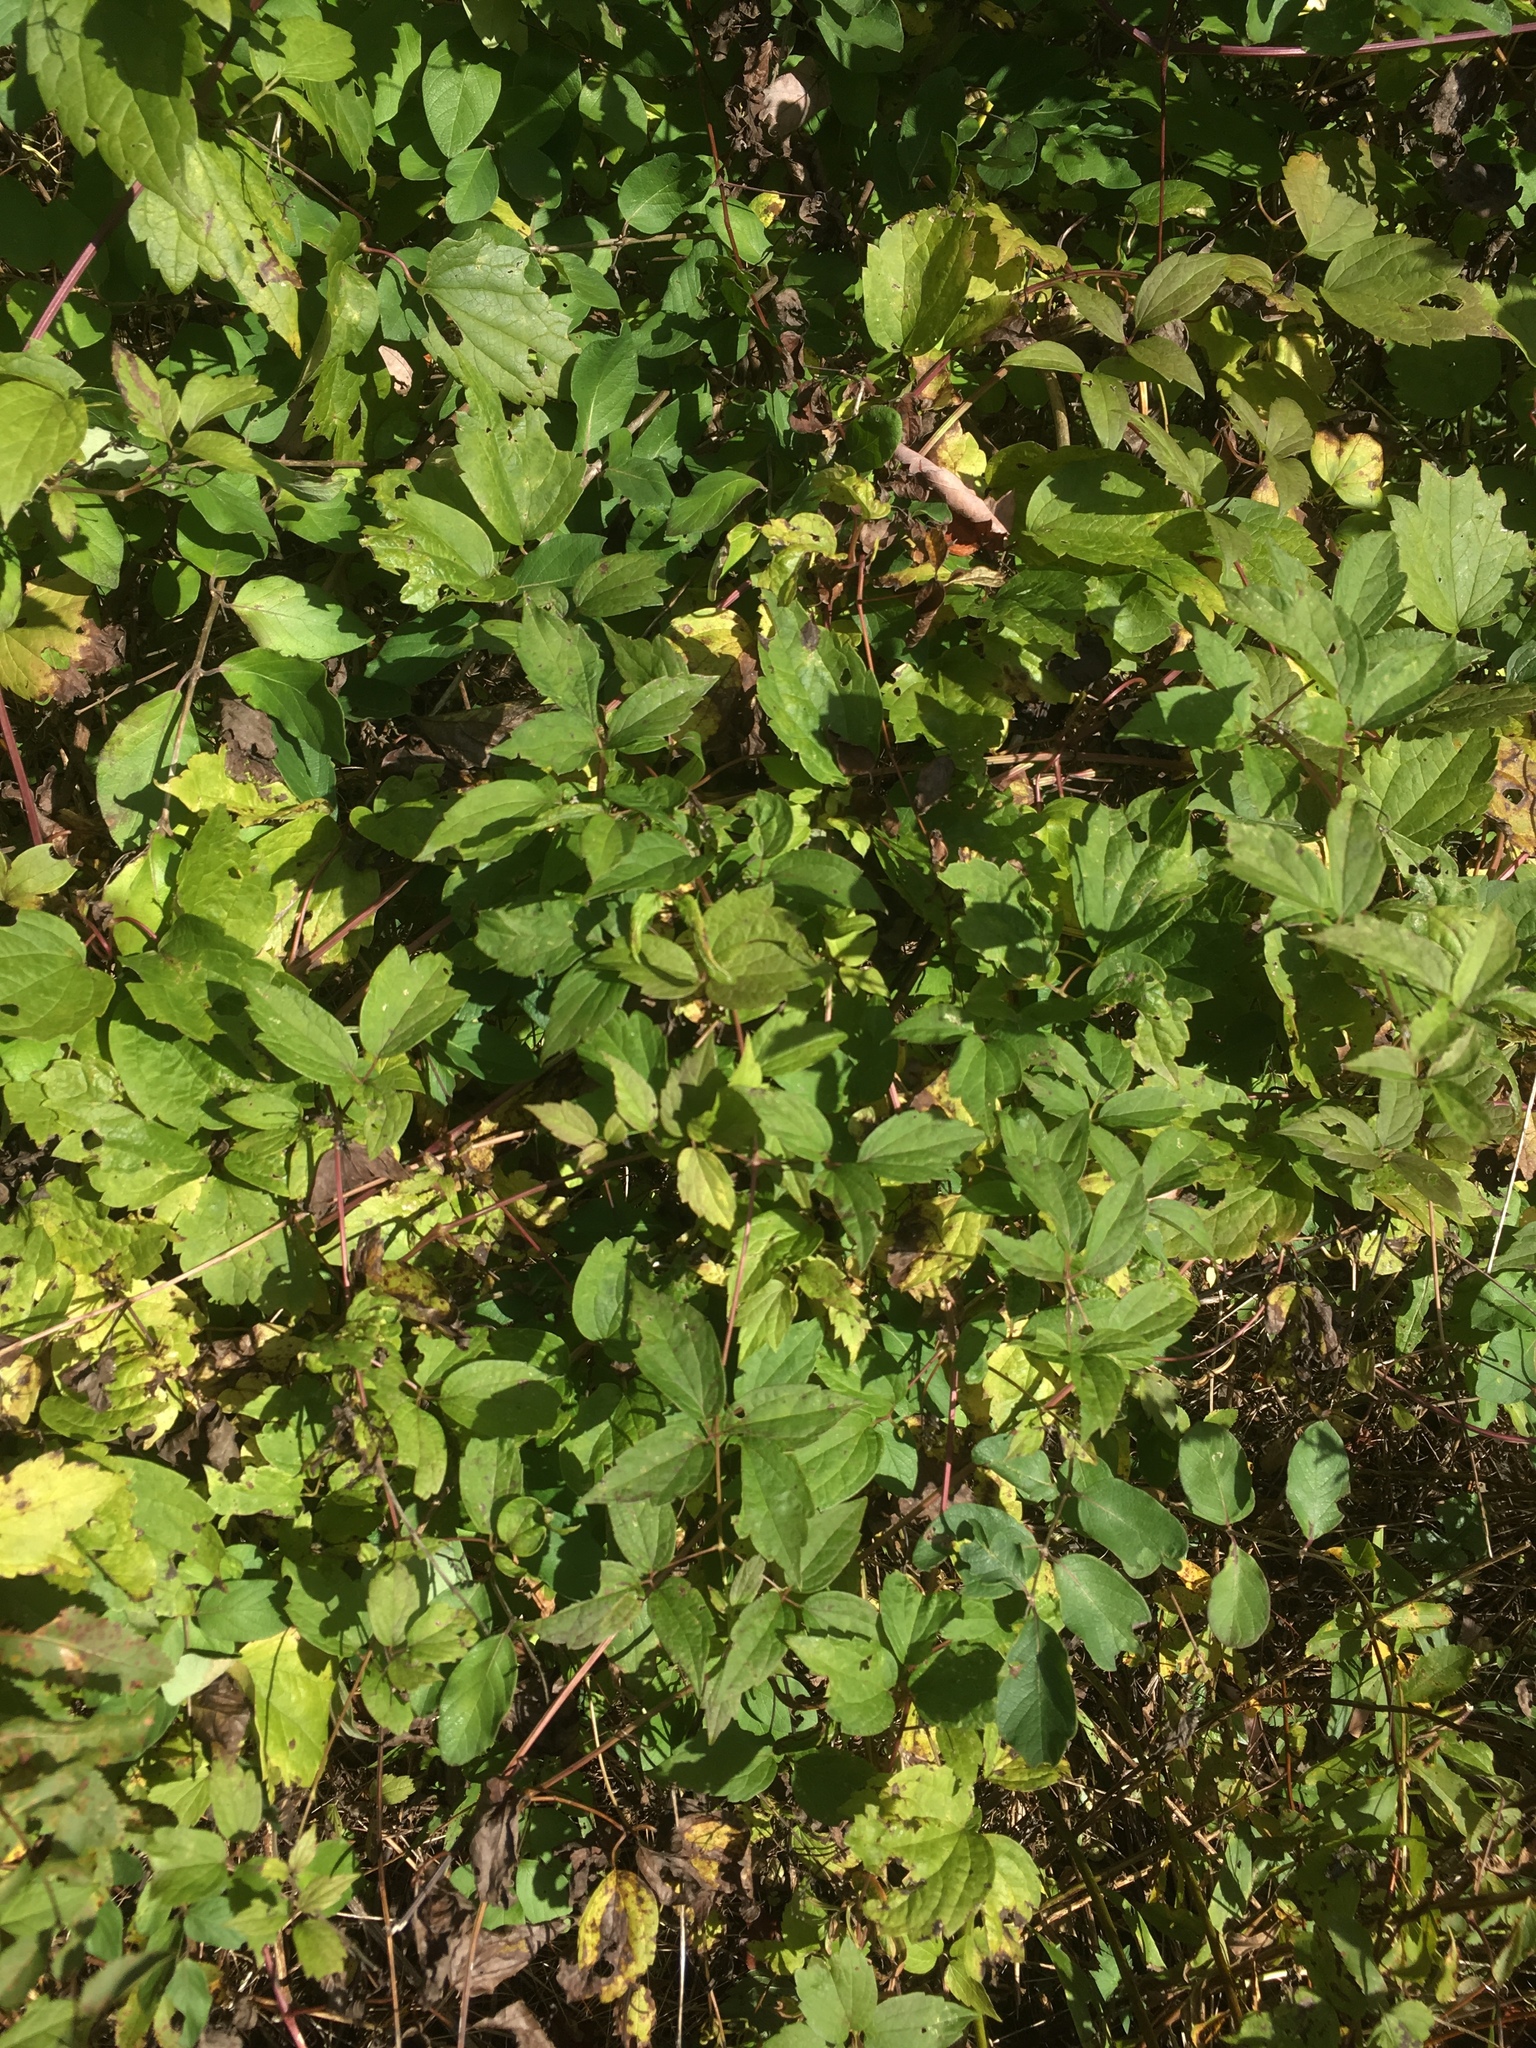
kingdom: Plantae
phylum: Tracheophyta
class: Magnoliopsida
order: Ranunculales
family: Ranunculaceae
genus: Clematis
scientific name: Clematis virginiana
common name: Virgin's-bower
